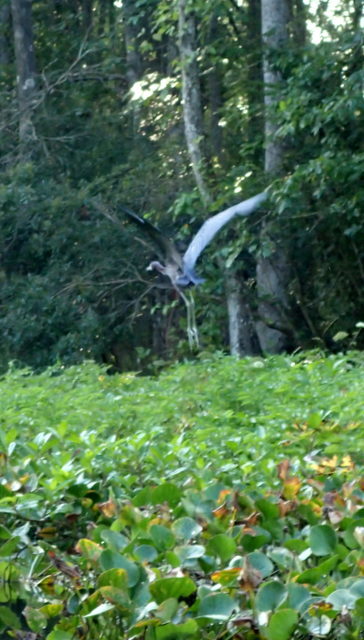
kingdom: Animalia
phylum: Chordata
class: Aves
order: Pelecaniformes
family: Ardeidae
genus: Egretta
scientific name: Egretta caerulea
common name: Little blue heron
